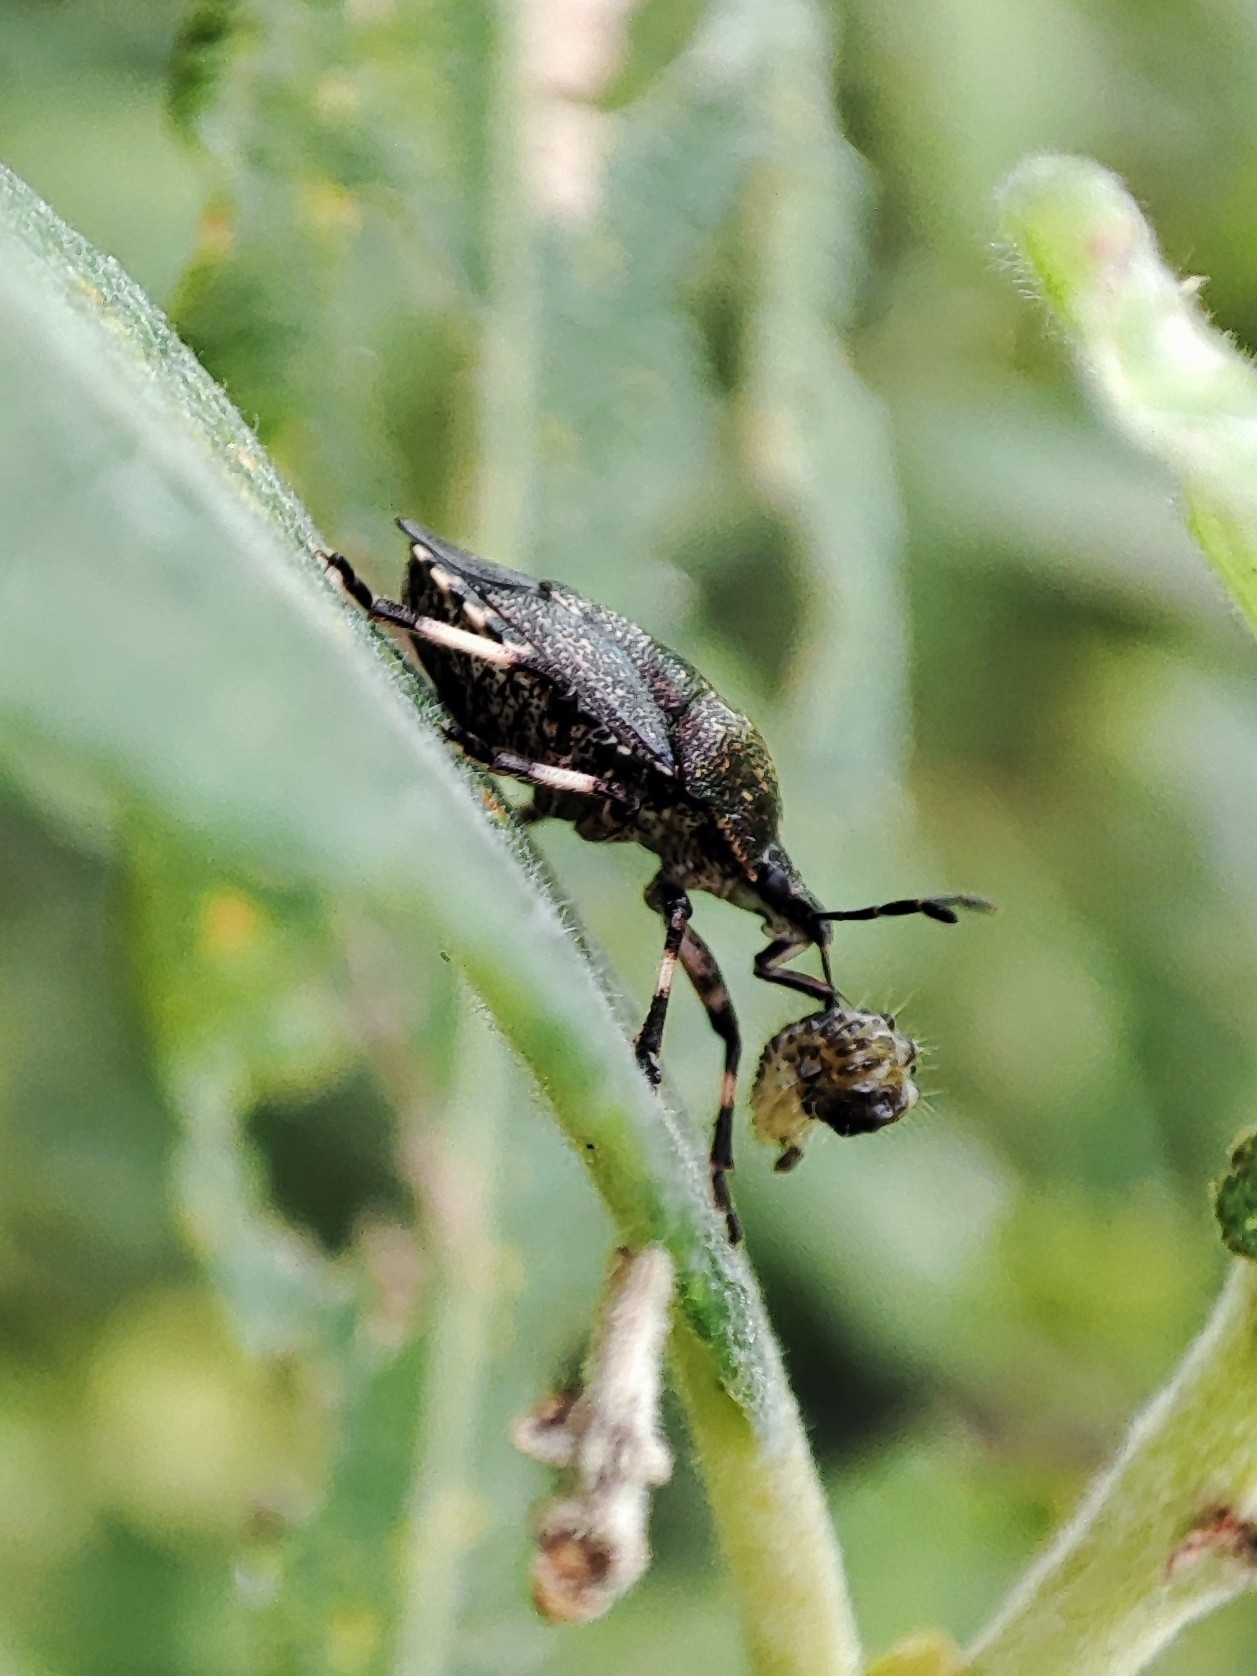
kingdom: Animalia
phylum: Arthropoda
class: Insecta
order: Hemiptera
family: Pentatomidae
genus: Rhacognathus
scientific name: Rhacognathus punctatus
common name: Heather bug
